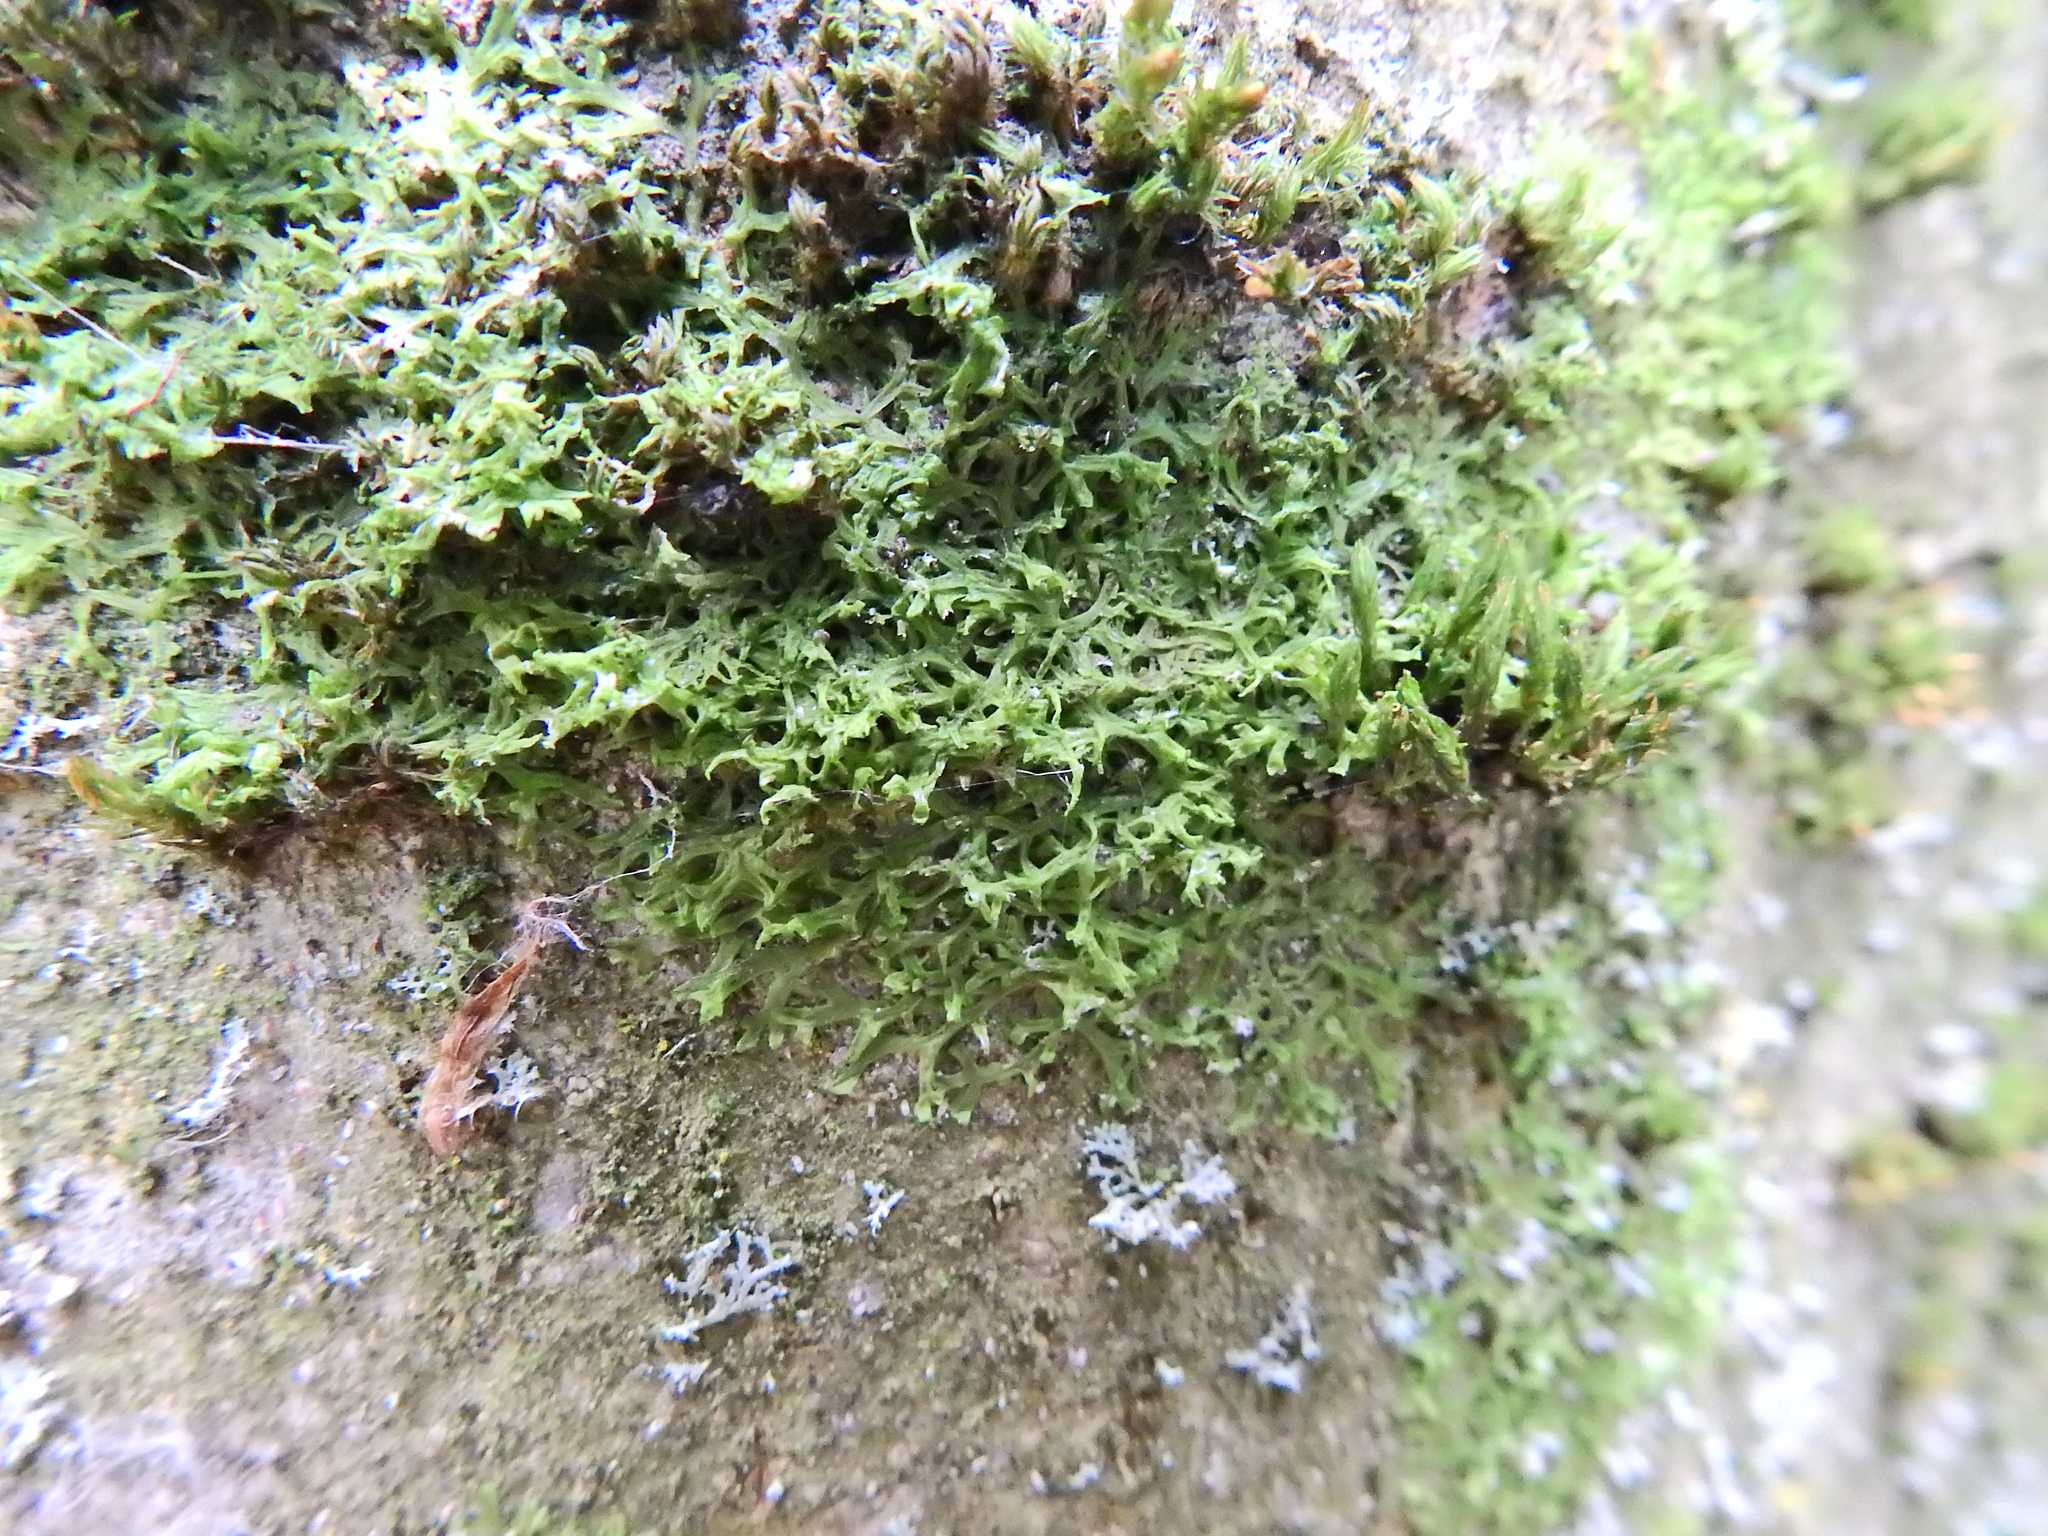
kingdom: Plantae
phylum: Marchantiophyta
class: Jungermanniopsida
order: Metzgeriales
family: Metzgeriaceae
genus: Metzgeria
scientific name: Metzgeria violacea
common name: Blueish veilwort
